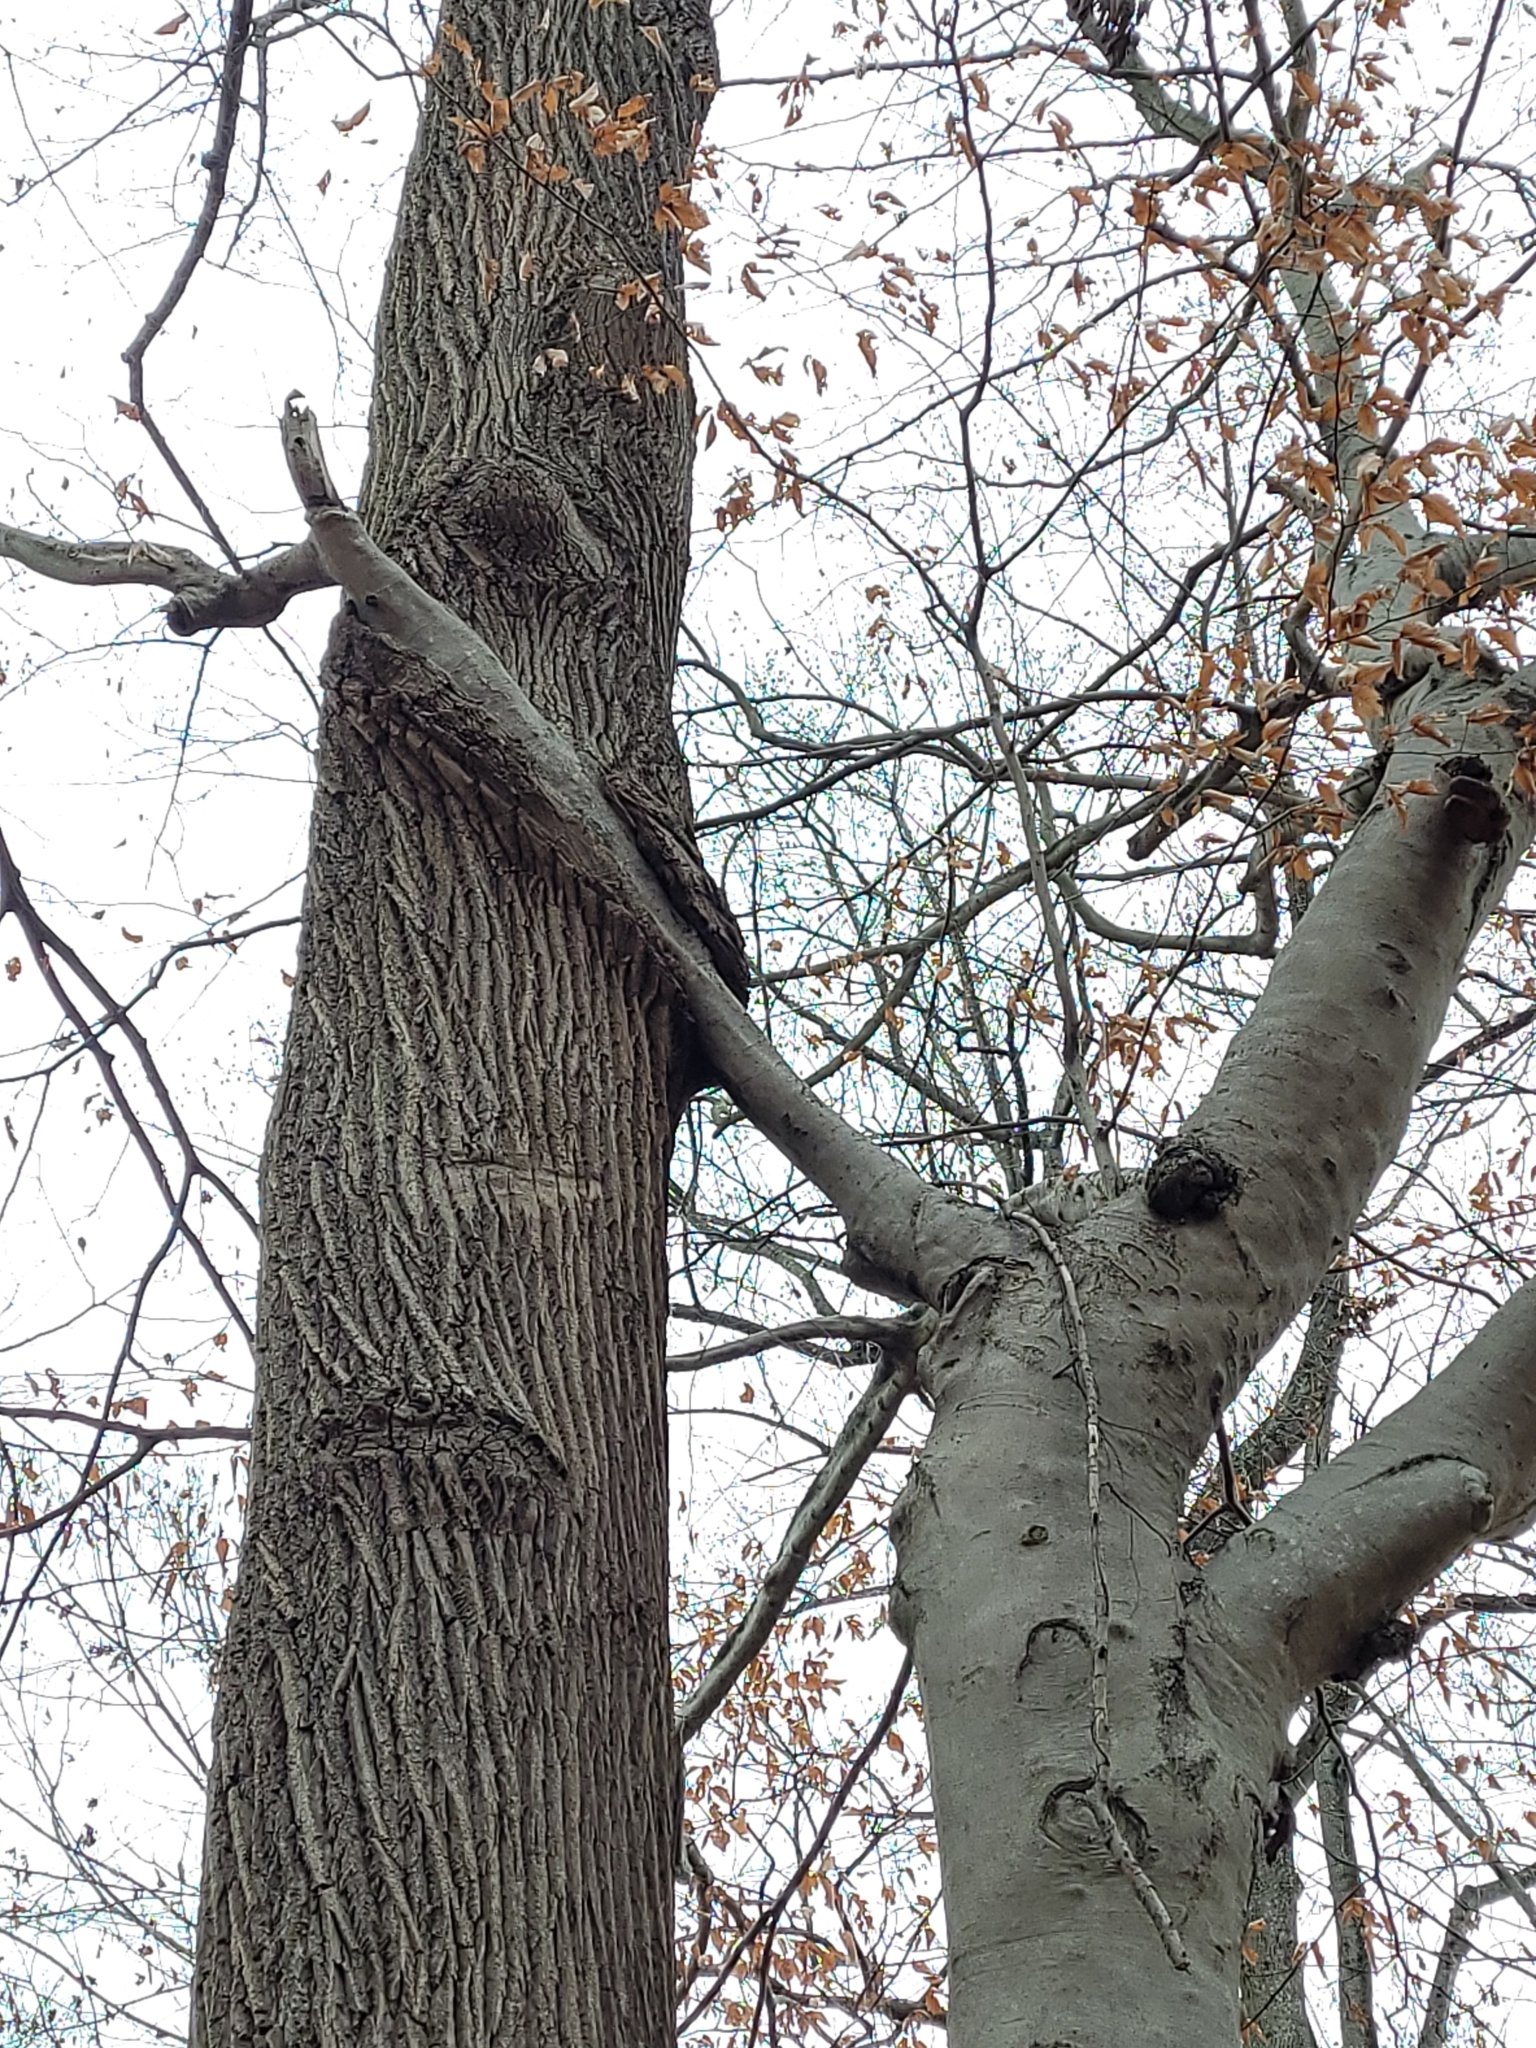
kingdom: Plantae
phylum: Tracheophyta
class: Magnoliopsida
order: Fagales
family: Fagaceae
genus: Fagus
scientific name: Fagus grandifolia
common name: American beech
